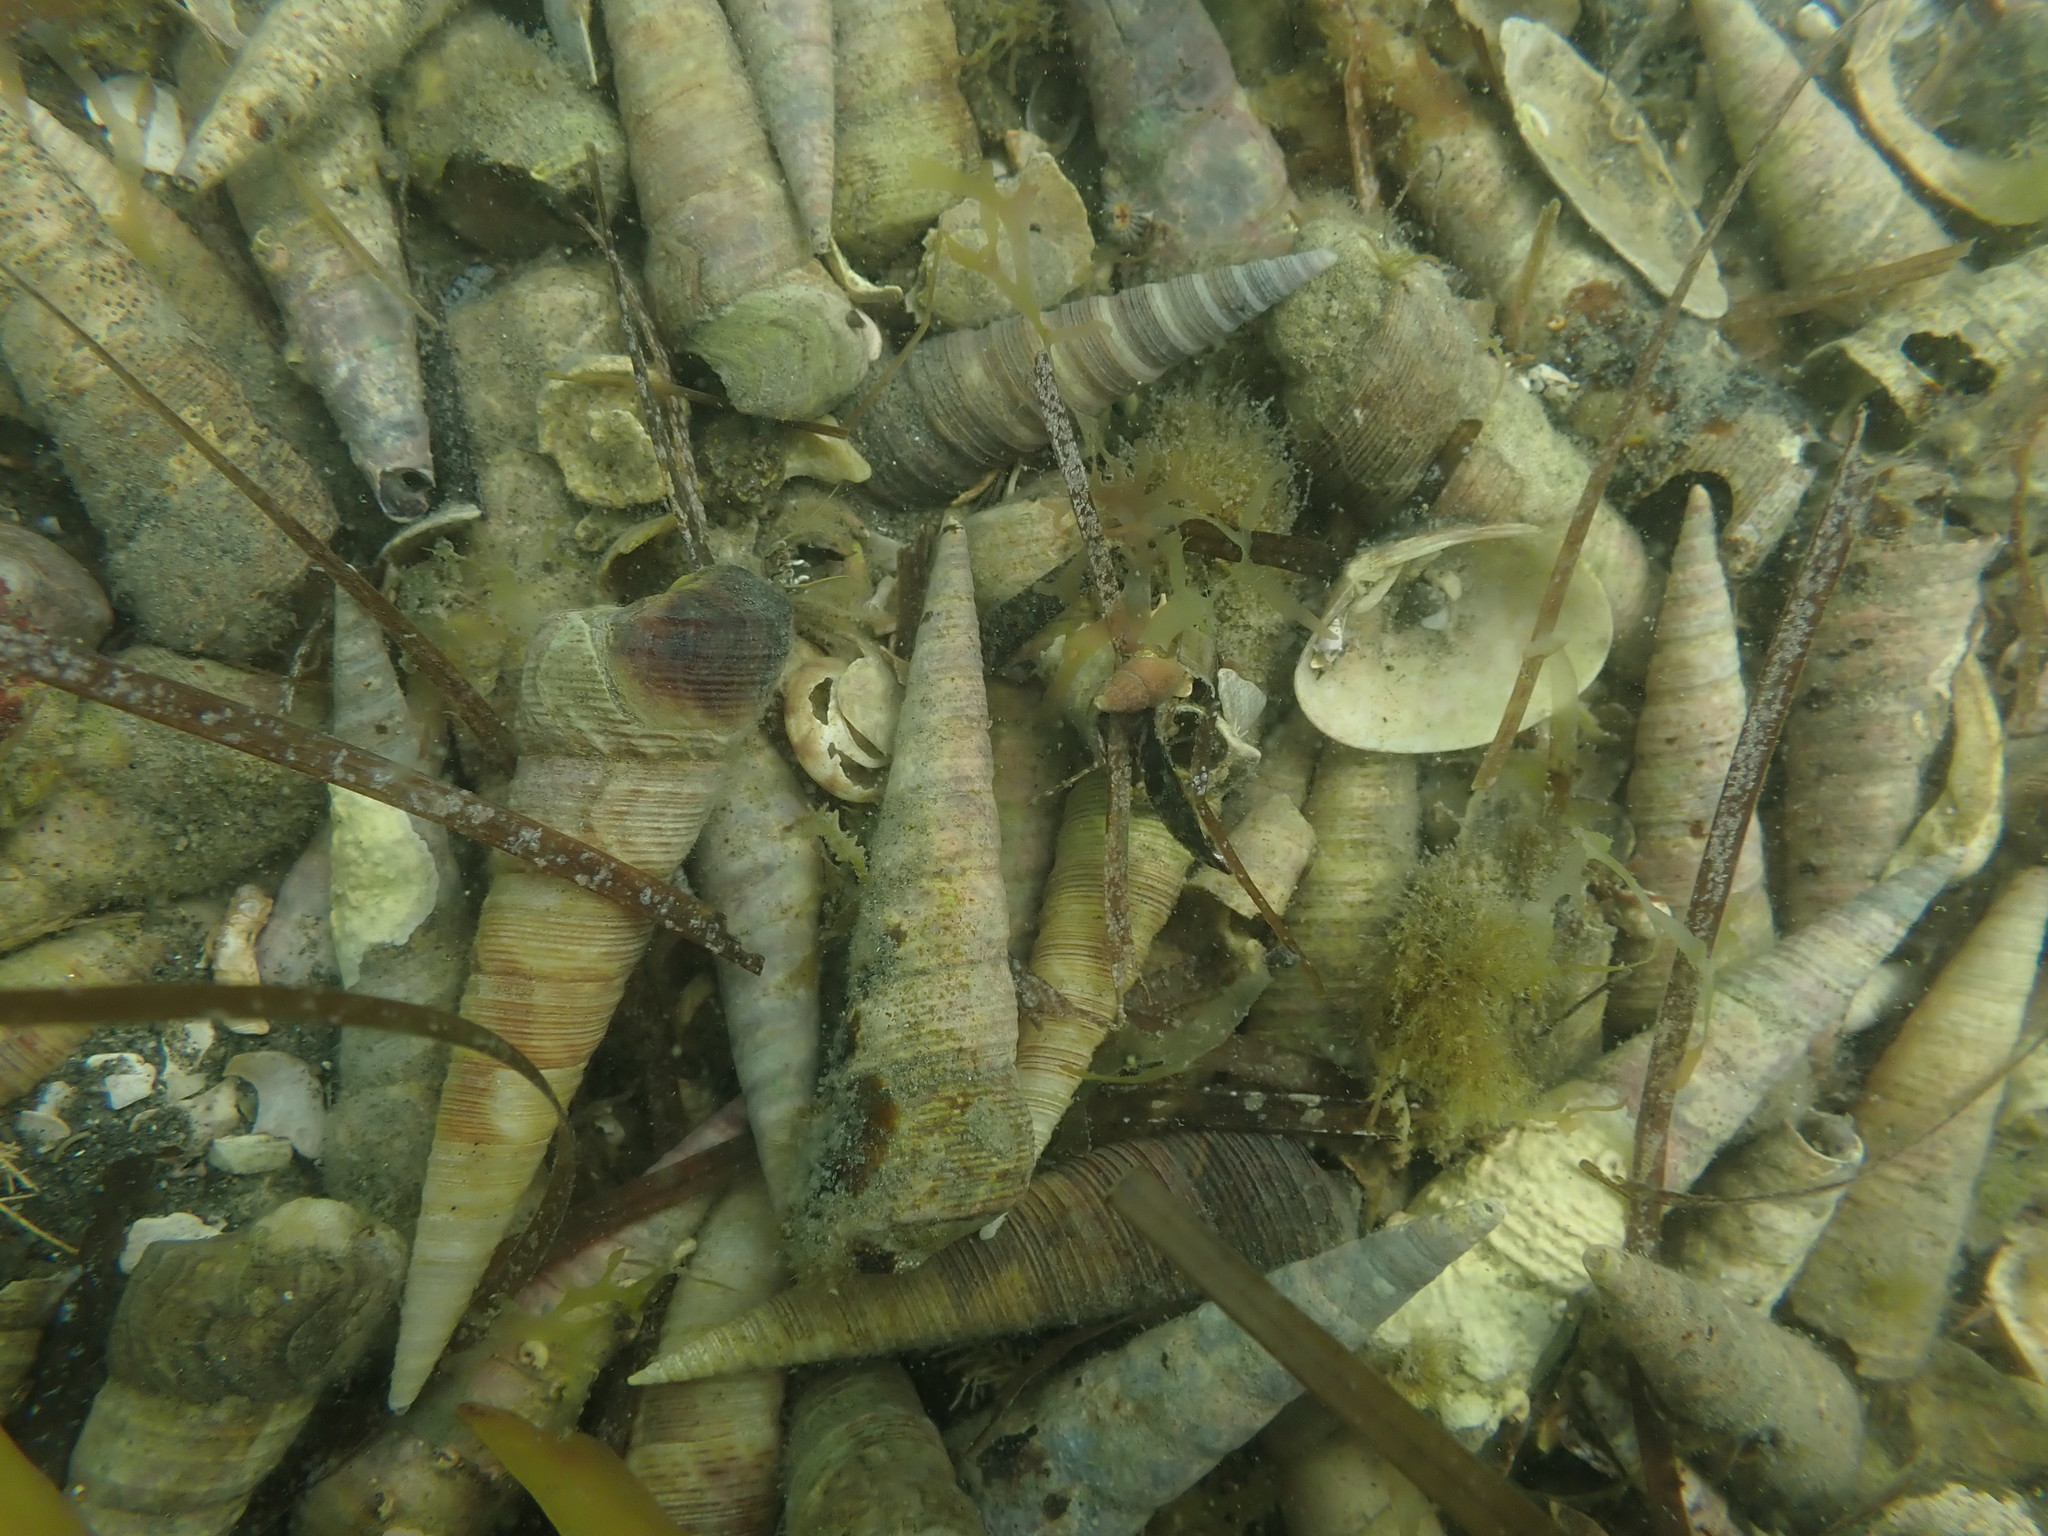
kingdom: Animalia
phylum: Mollusca
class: Gastropoda
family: Turritellidae
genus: Maoricolpus
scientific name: Maoricolpus roseus
